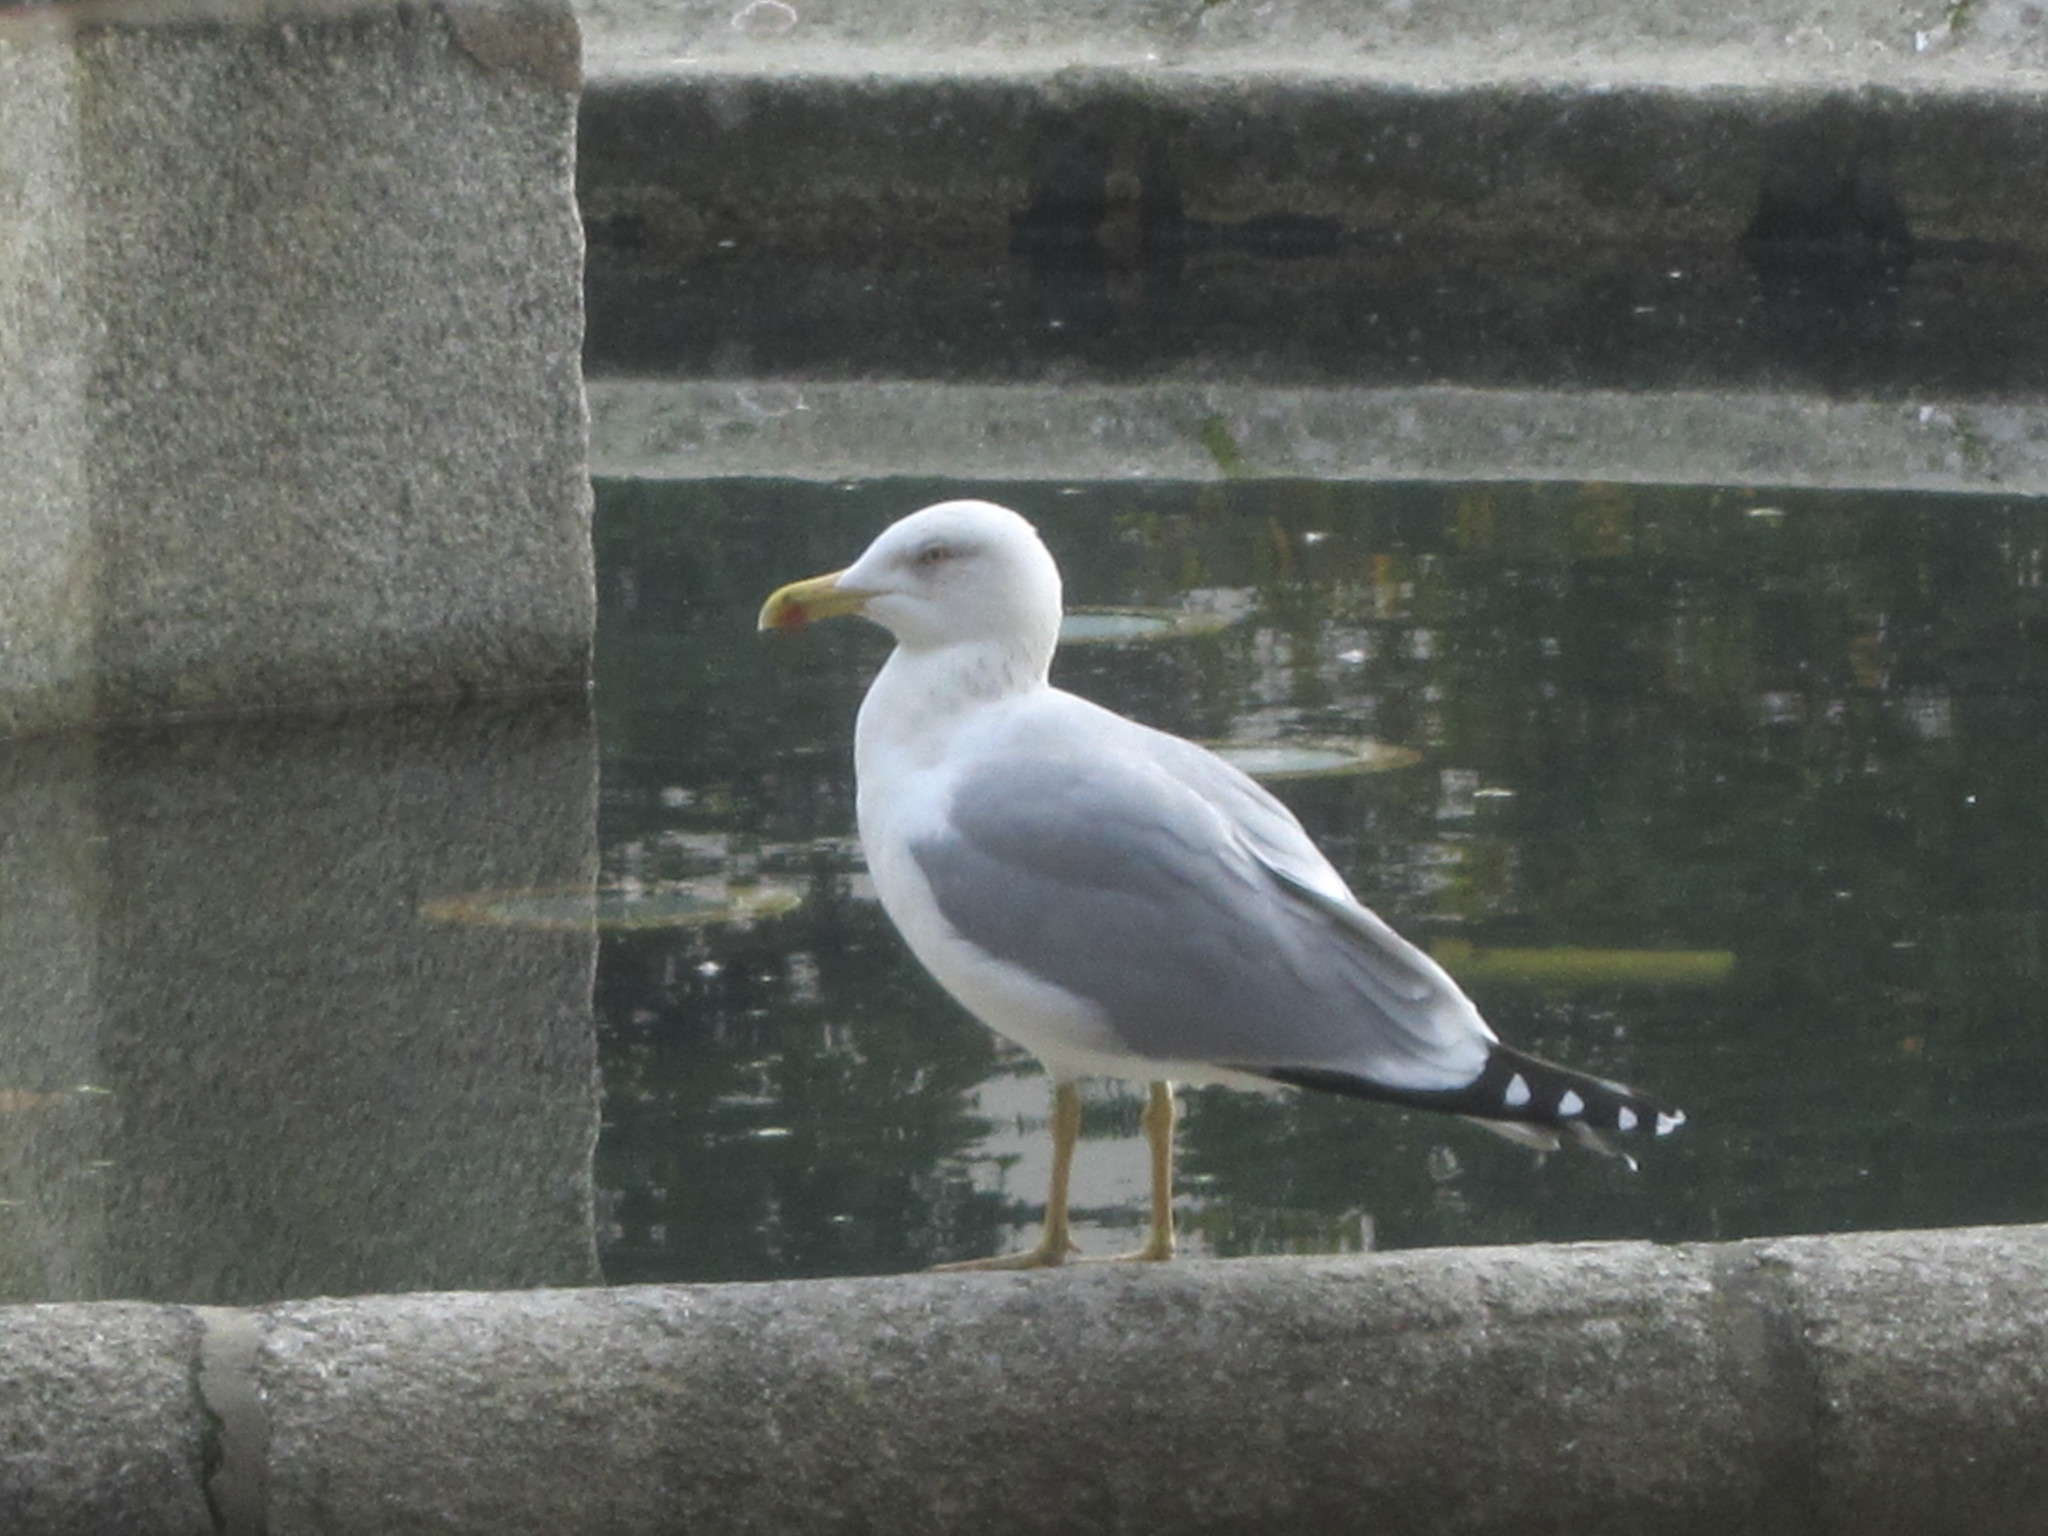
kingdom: Animalia
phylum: Chordata
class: Aves
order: Charadriiformes
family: Laridae
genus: Larus
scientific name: Larus michahellis
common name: Yellow-legged gull
